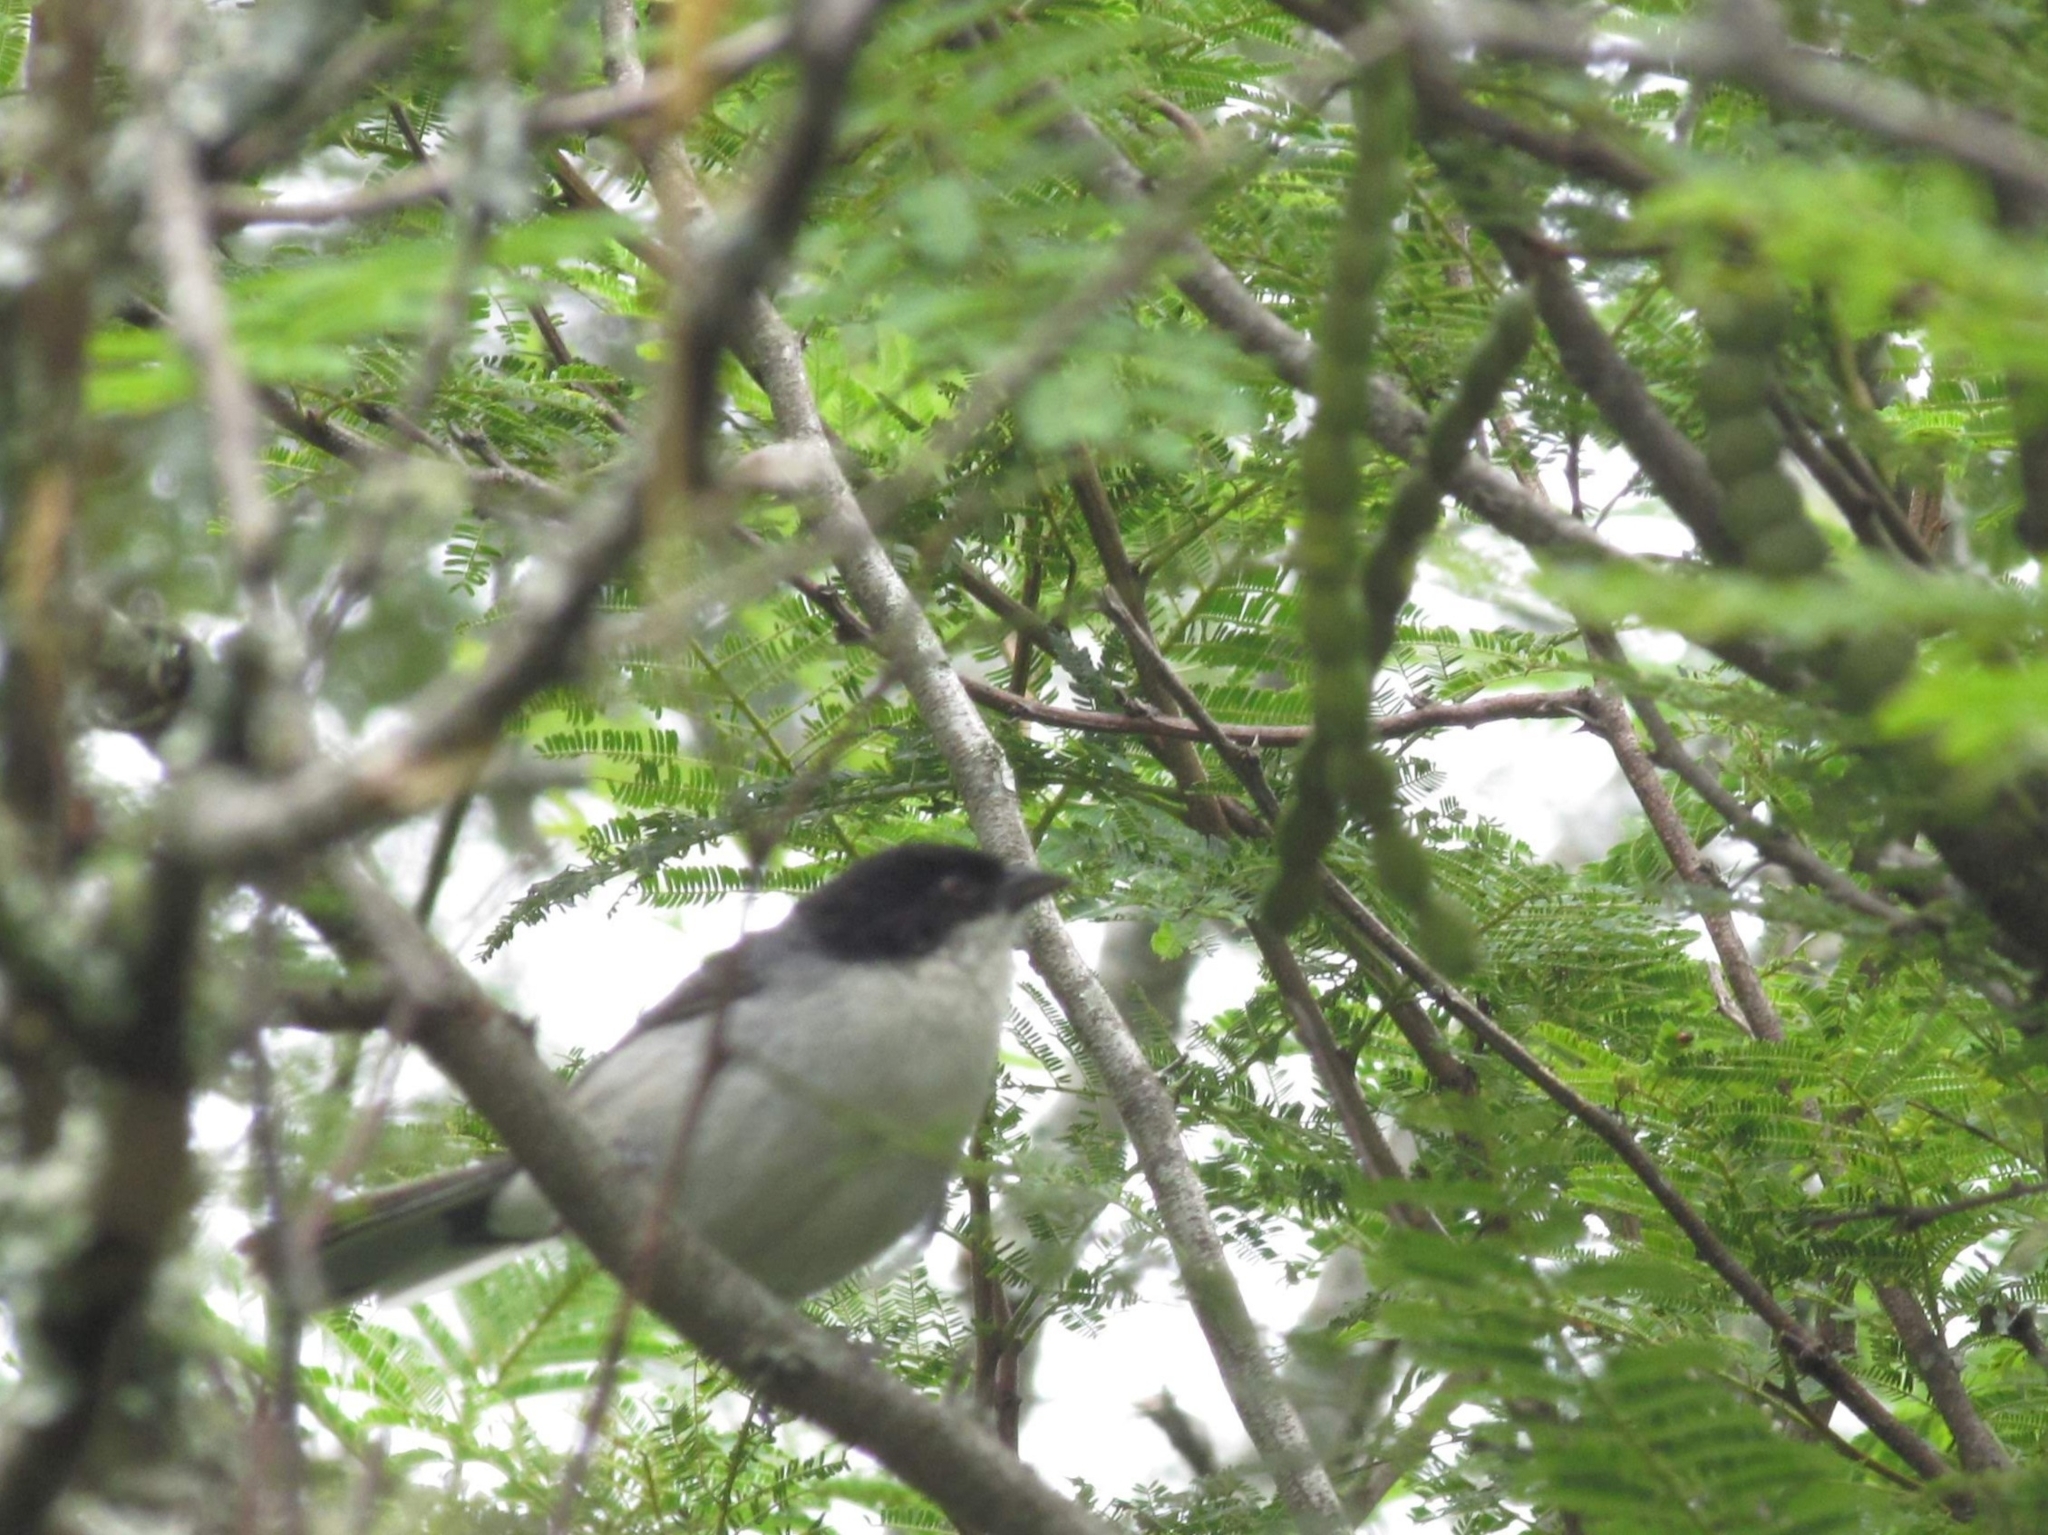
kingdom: Animalia
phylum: Chordata
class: Aves
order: Passeriformes
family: Thraupidae
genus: Microspingus
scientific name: Microspingus melanoleucus
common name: Black-capped warbling-finch
